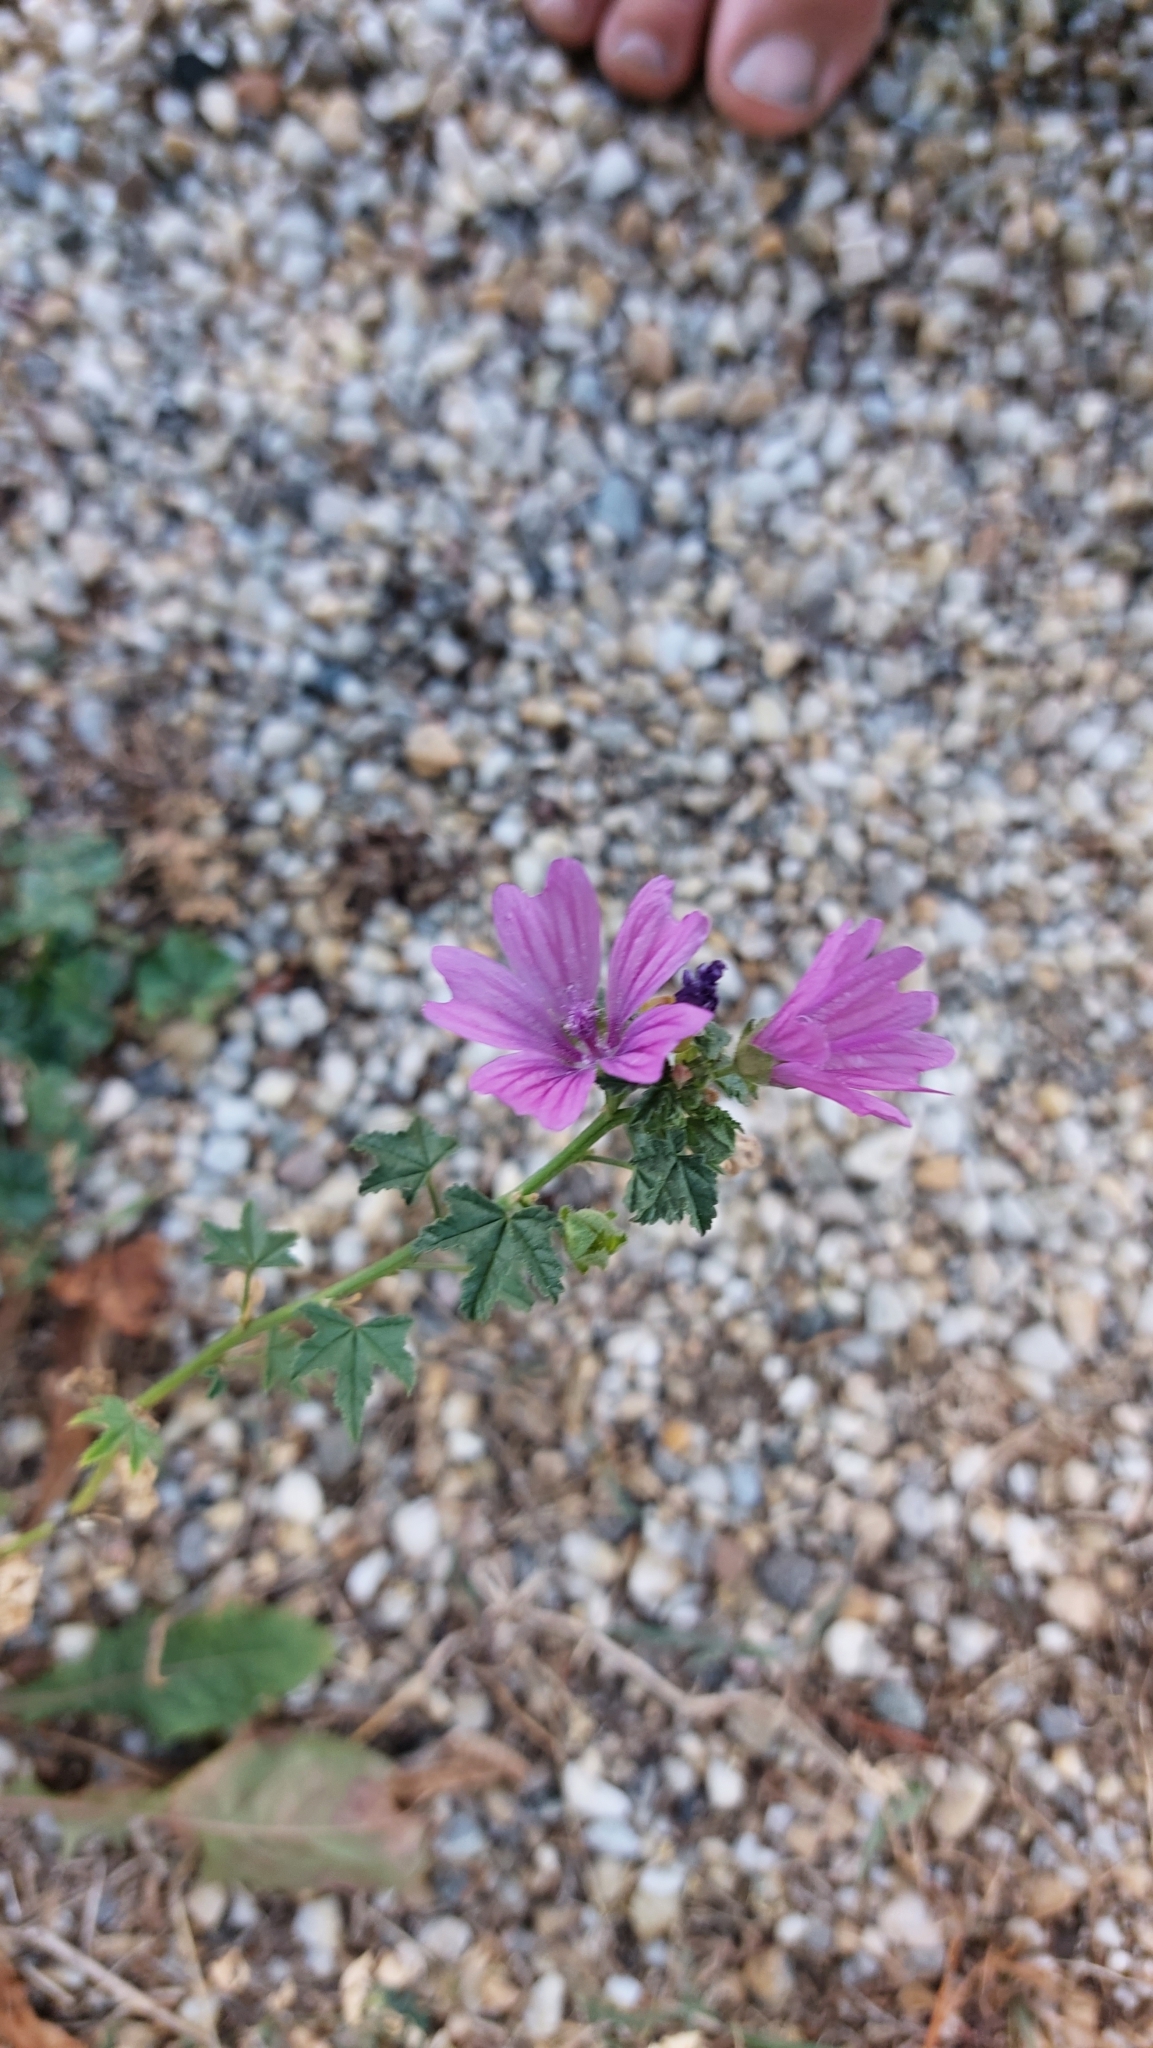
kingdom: Plantae
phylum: Tracheophyta
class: Magnoliopsida
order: Malvales
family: Malvaceae
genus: Malva
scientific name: Malva sylvestris
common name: Common mallow
